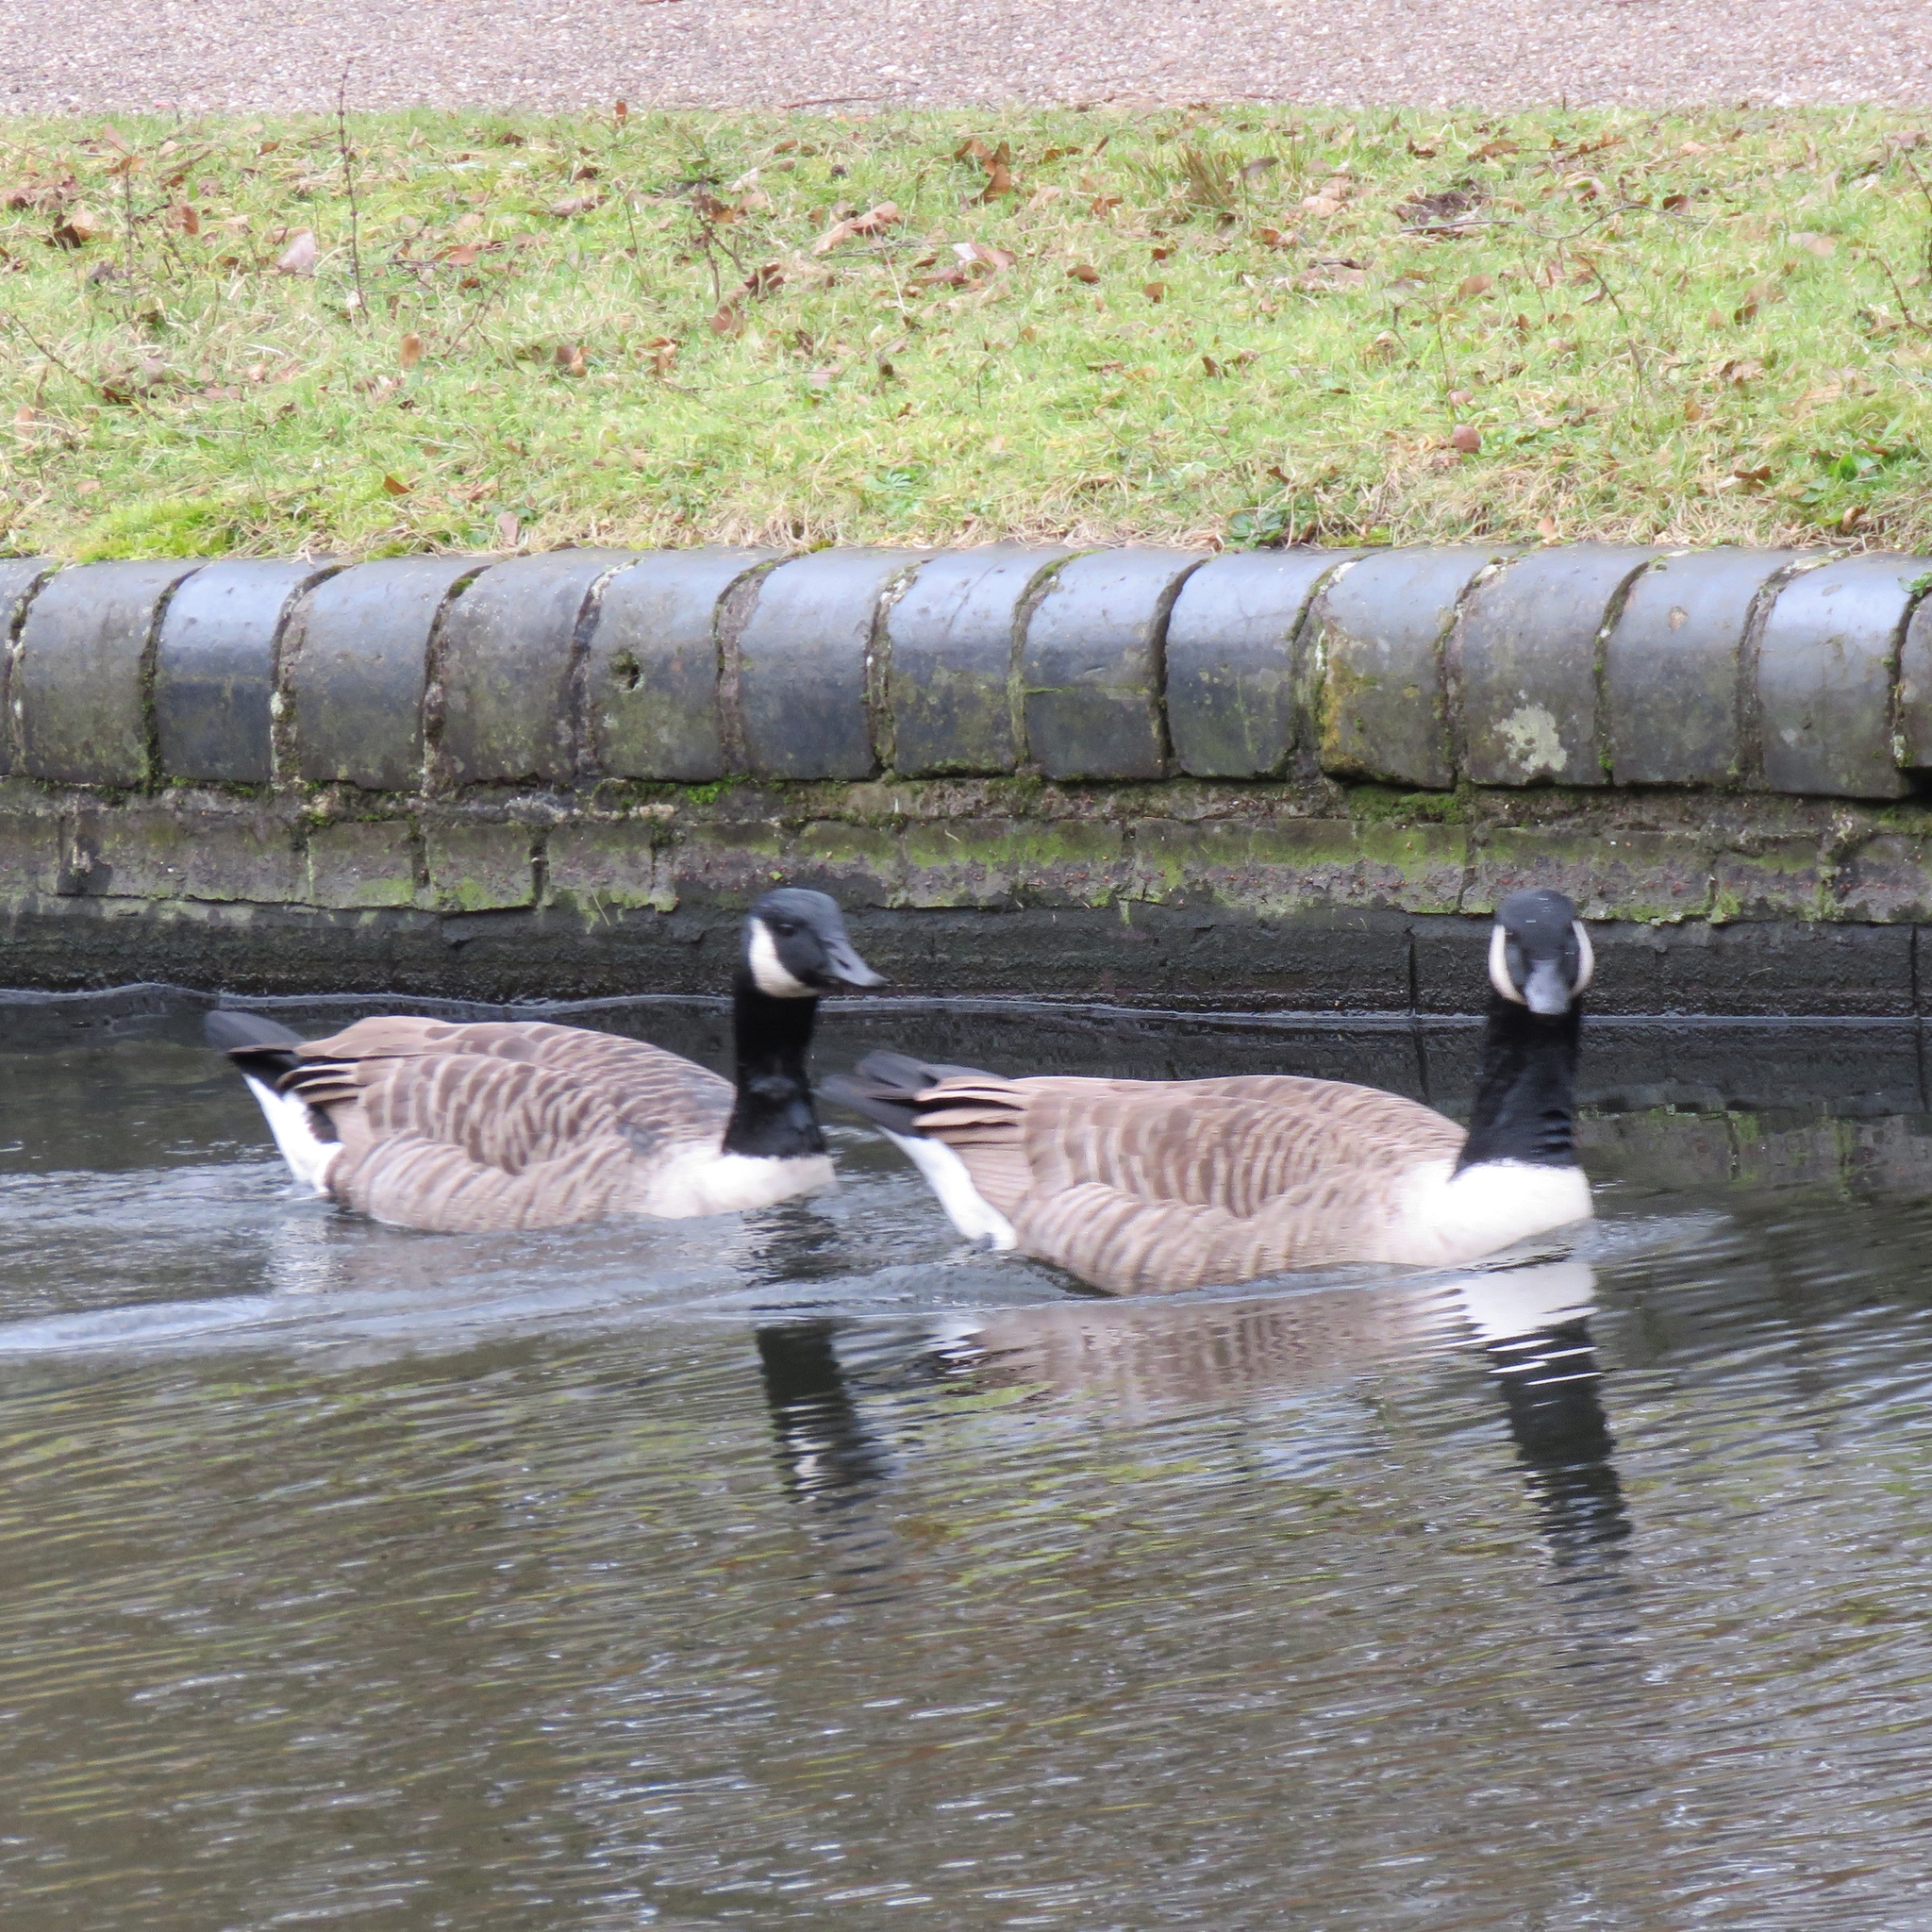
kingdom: Animalia
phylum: Chordata
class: Aves
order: Anseriformes
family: Anatidae
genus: Branta
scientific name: Branta canadensis
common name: Canada goose
